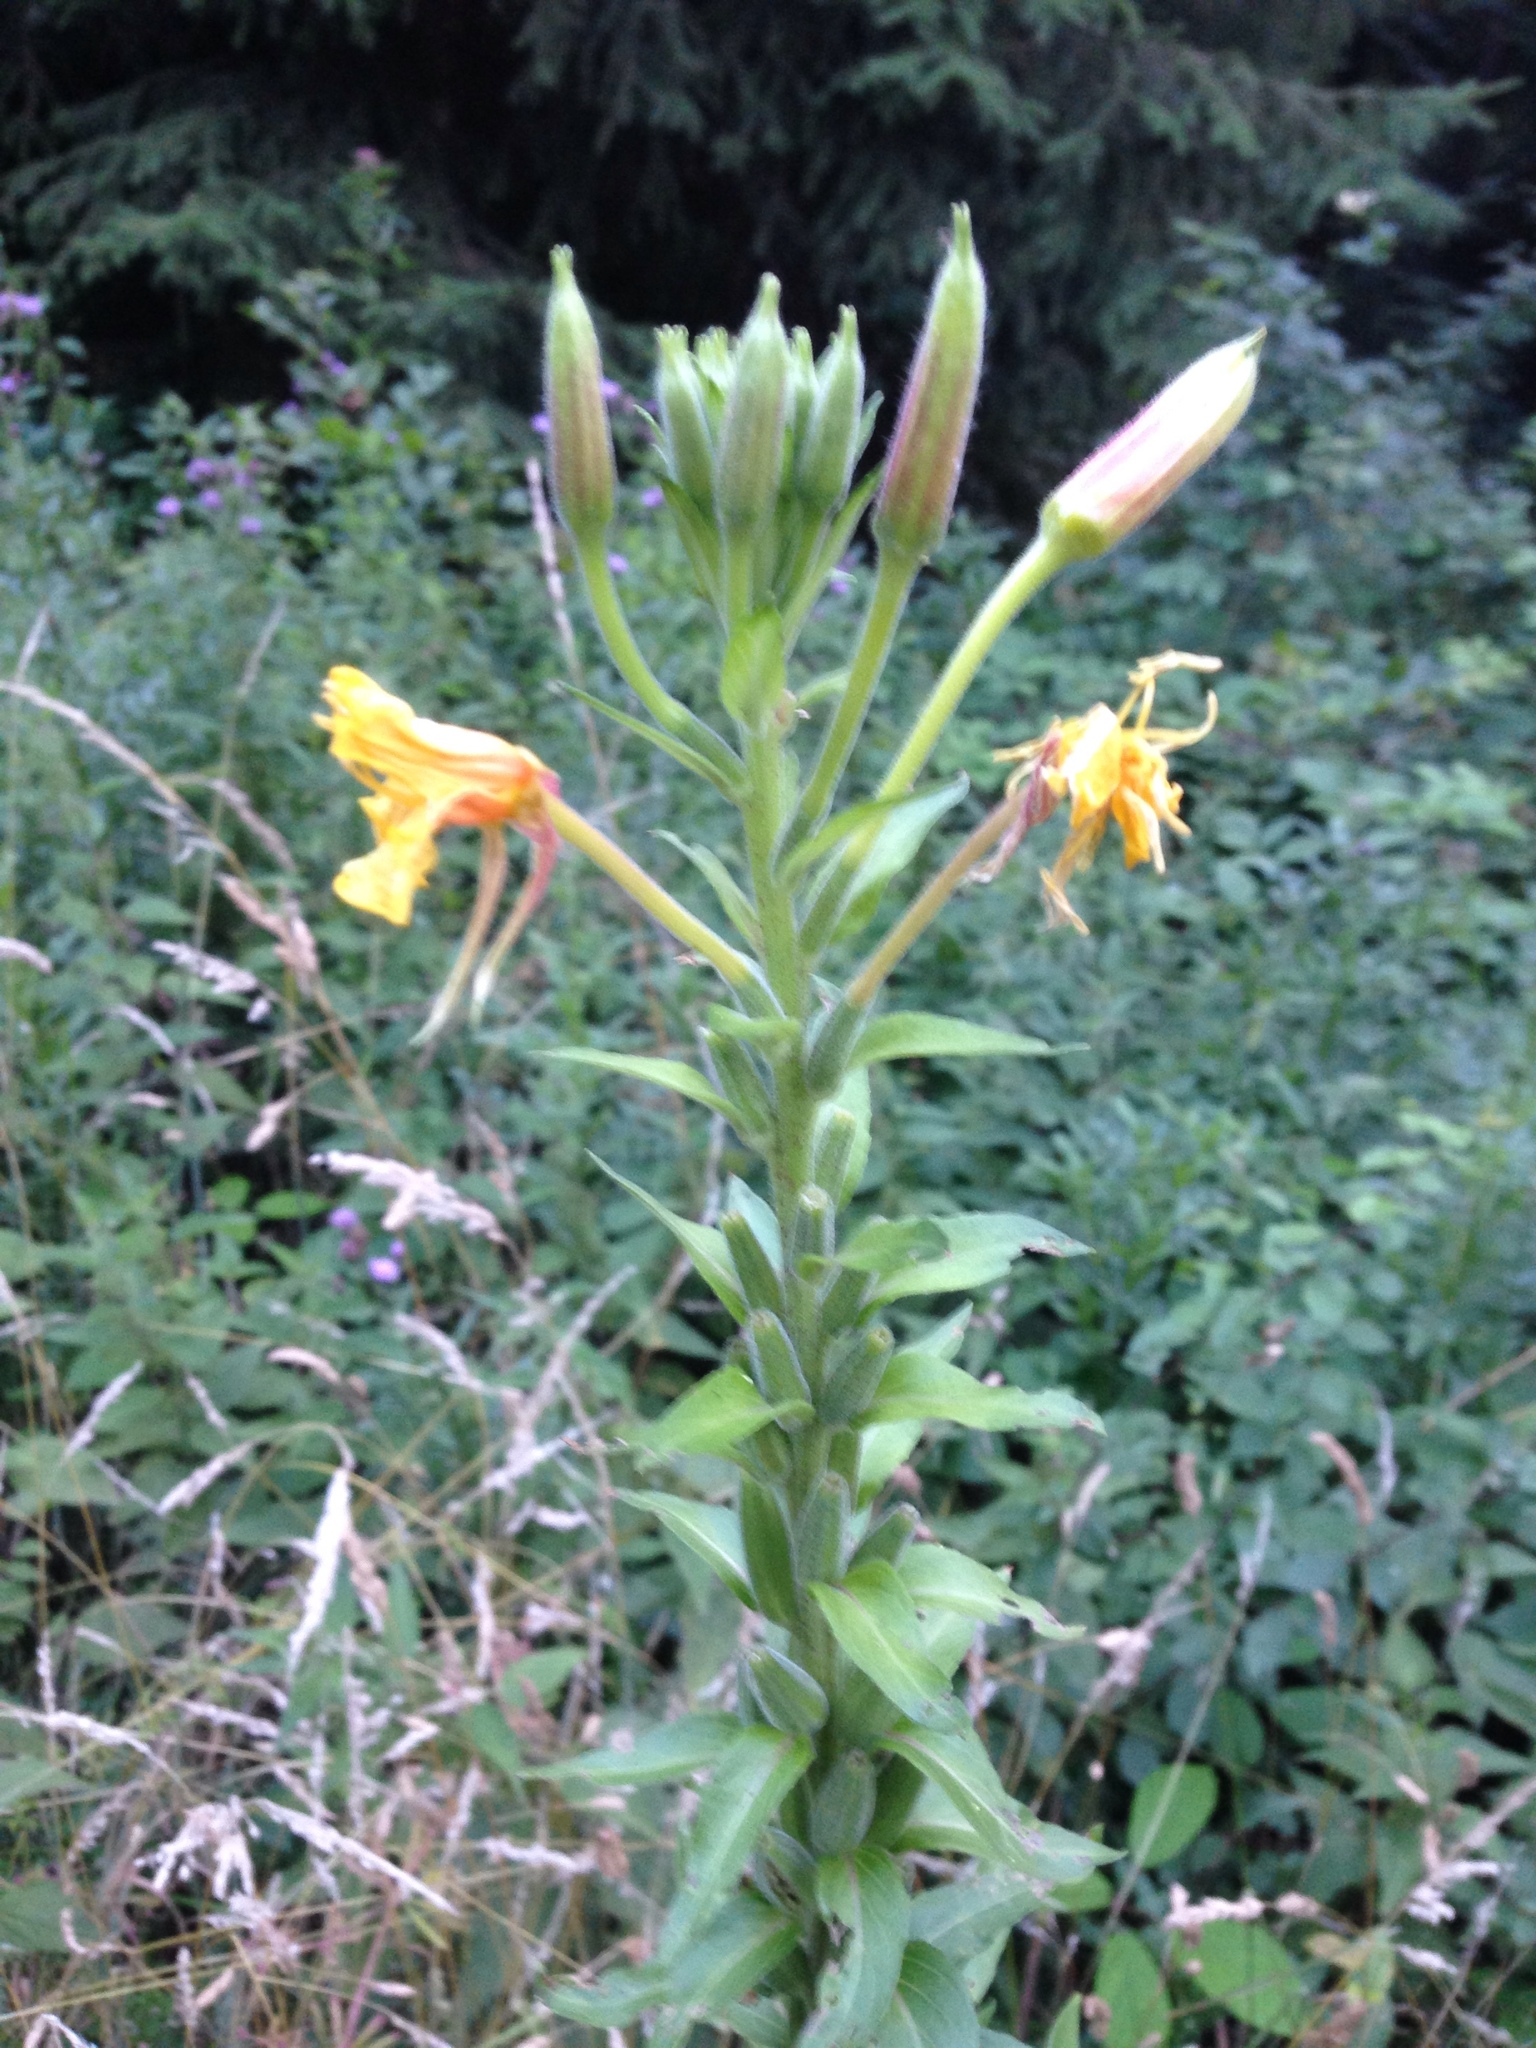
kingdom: Plantae
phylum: Tracheophyta
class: Magnoliopsida
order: Myrtales
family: Onagraceae
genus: Oenothera
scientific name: Oenothera glazioviana
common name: Large-flowered evening-primrose
